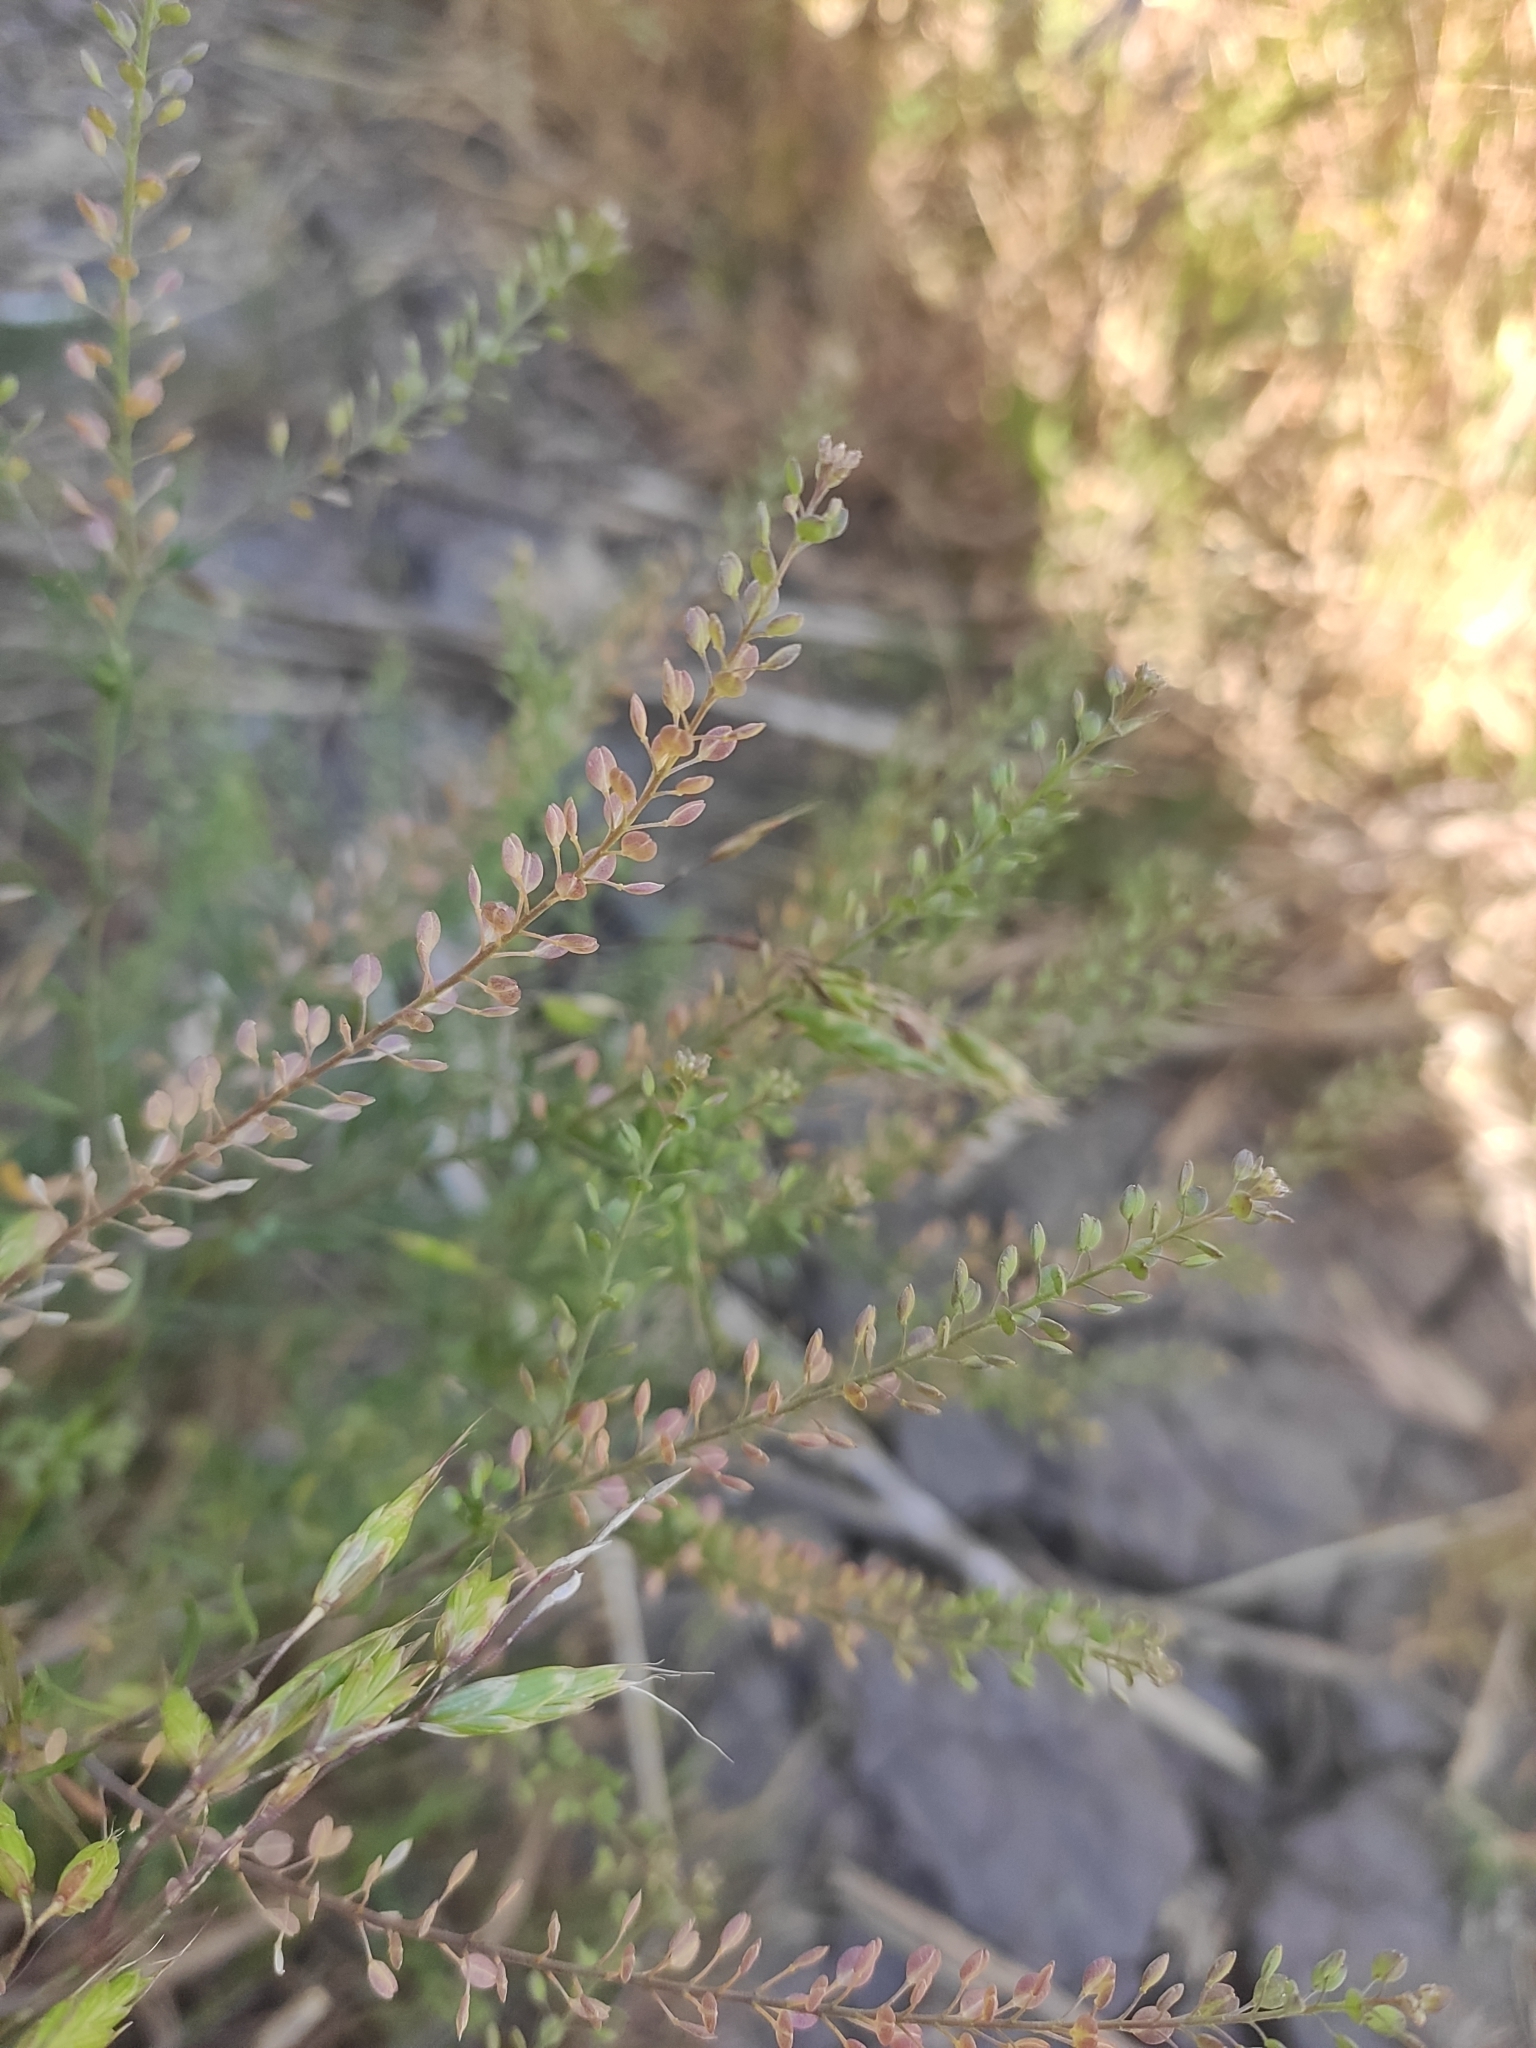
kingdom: Plantae
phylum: Tracheophyta
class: Magnoliopsida
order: Brassicales
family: Brassicaceae
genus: Lepidium
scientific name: Lepidium ruderale
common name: Narrow-leaved pepperwort
